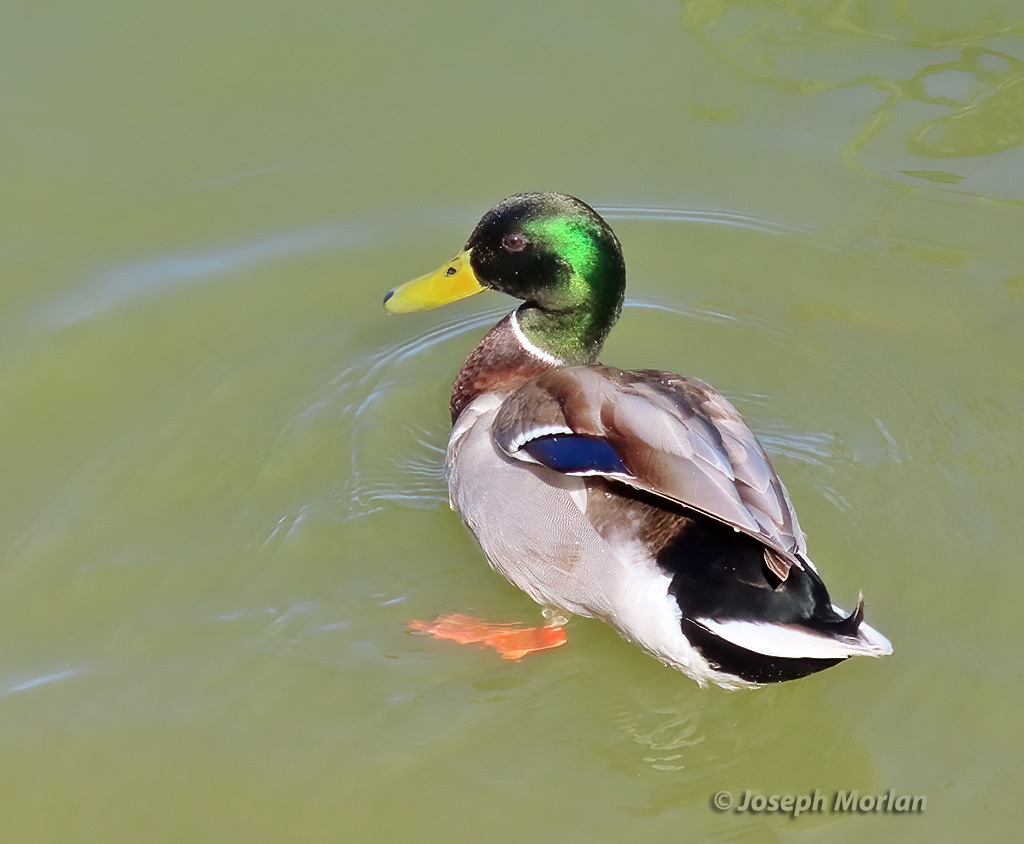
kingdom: Animalia
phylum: Chordata
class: Aves
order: Anseriformes
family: Anatidae
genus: Anas
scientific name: Anas platyrhynchos
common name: Mallard
